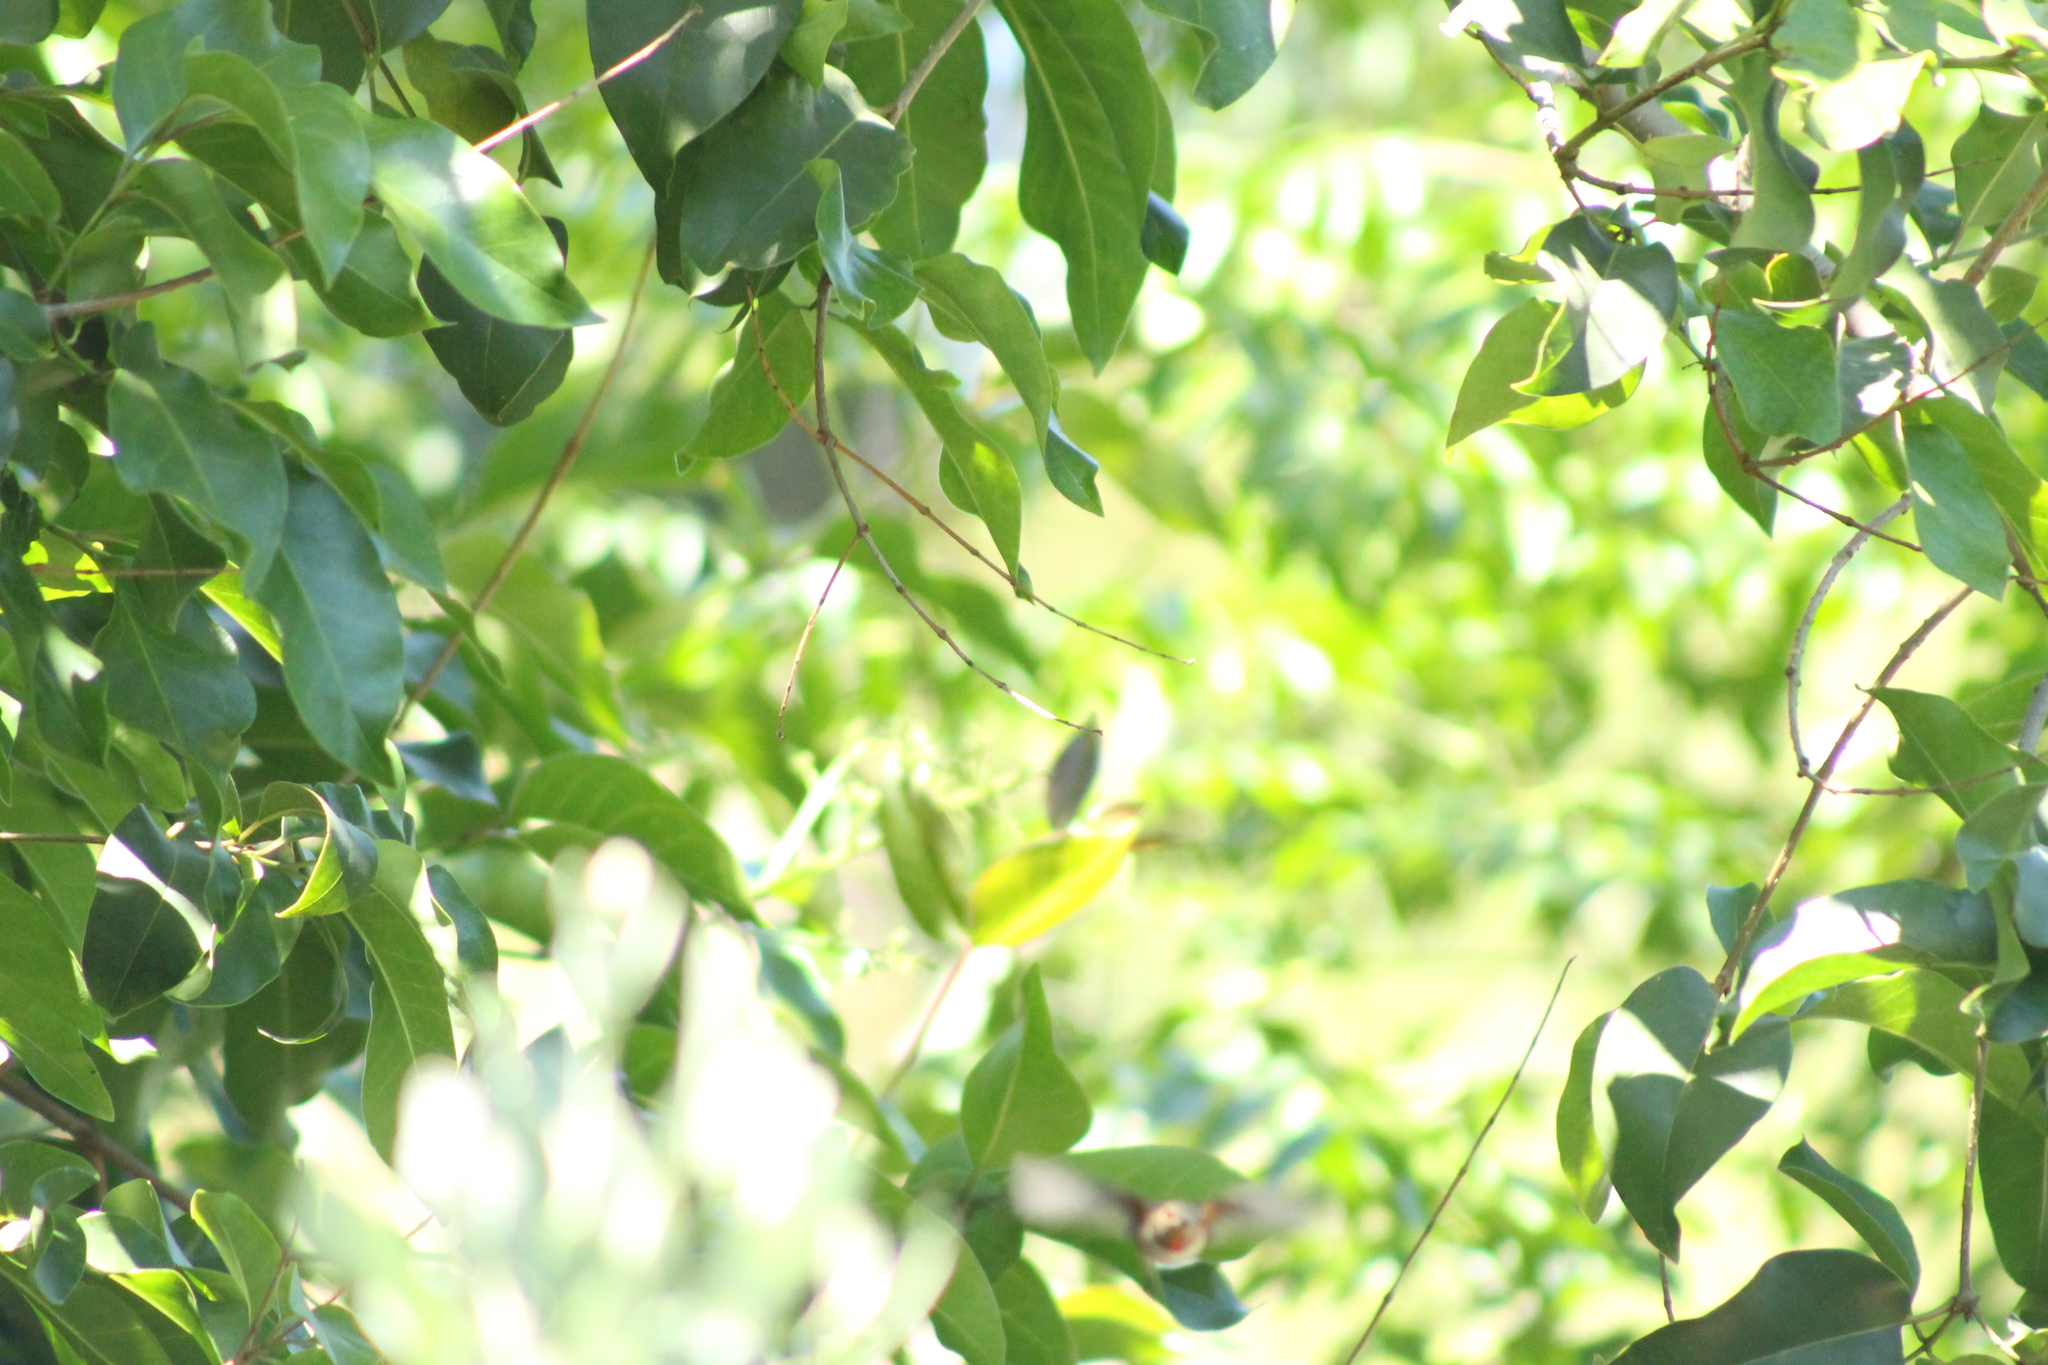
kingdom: Animalia
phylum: Chordata
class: Aves
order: Apodiformes
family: Trochilidae
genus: Selasphorus
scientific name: Selasphorus sasin
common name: Allen's hummingbird
